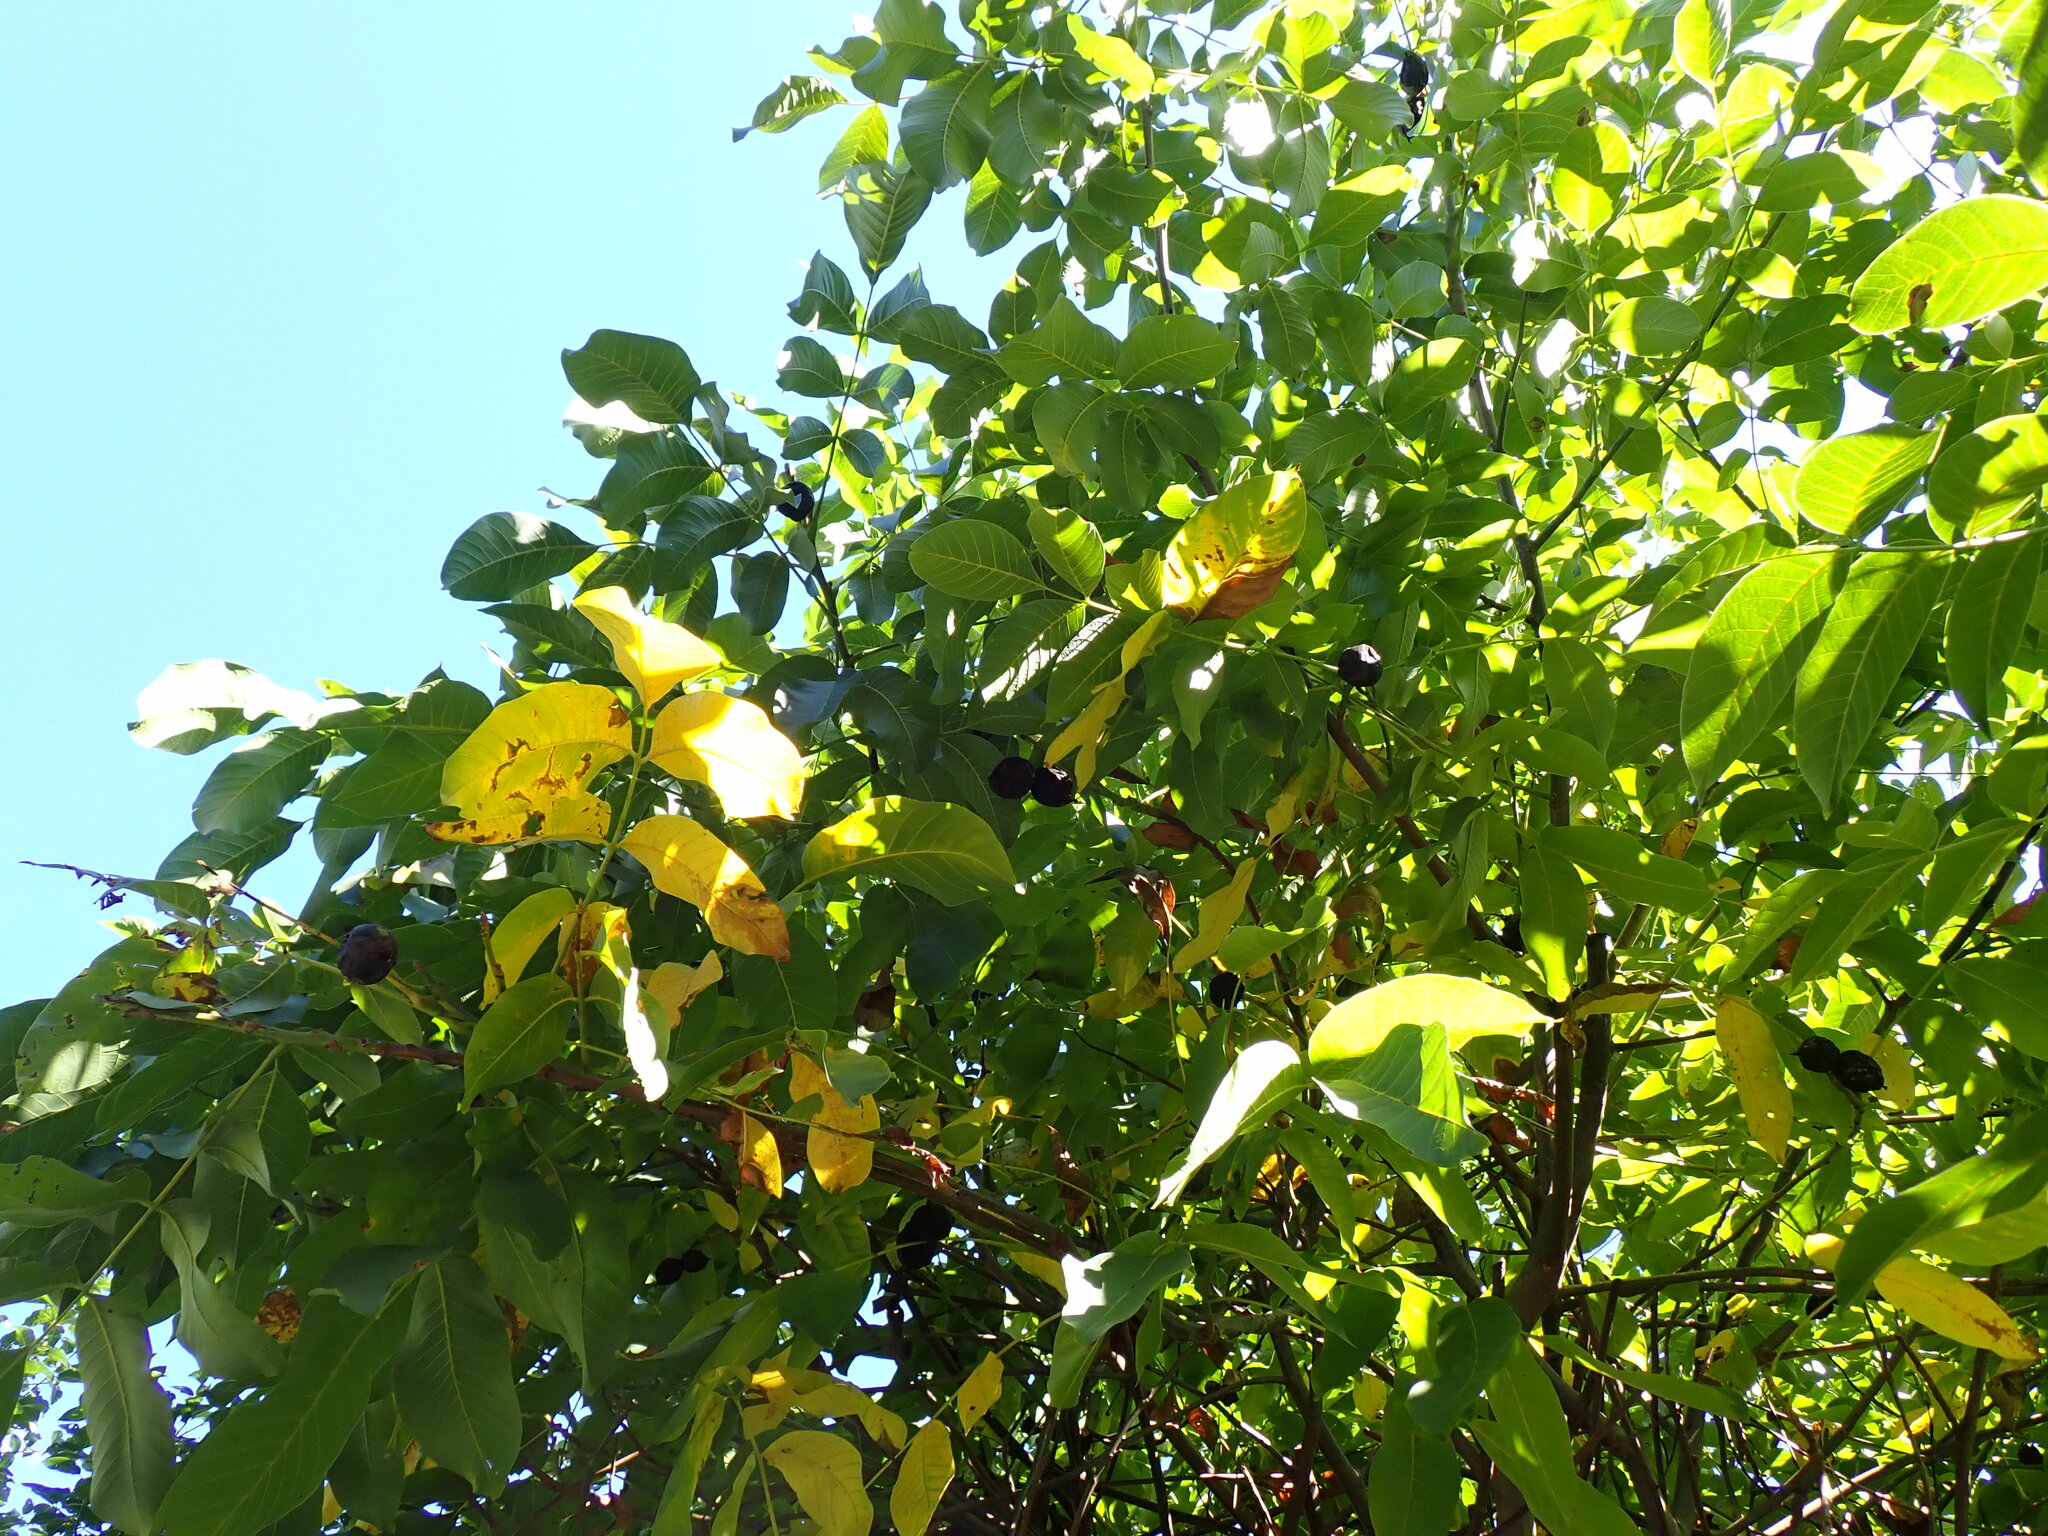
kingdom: Plantae
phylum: Tracheophyta
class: Magnoliopsida
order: Fagales
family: Juglandaceae
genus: Juglans
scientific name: Juglans regia
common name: Walnut
